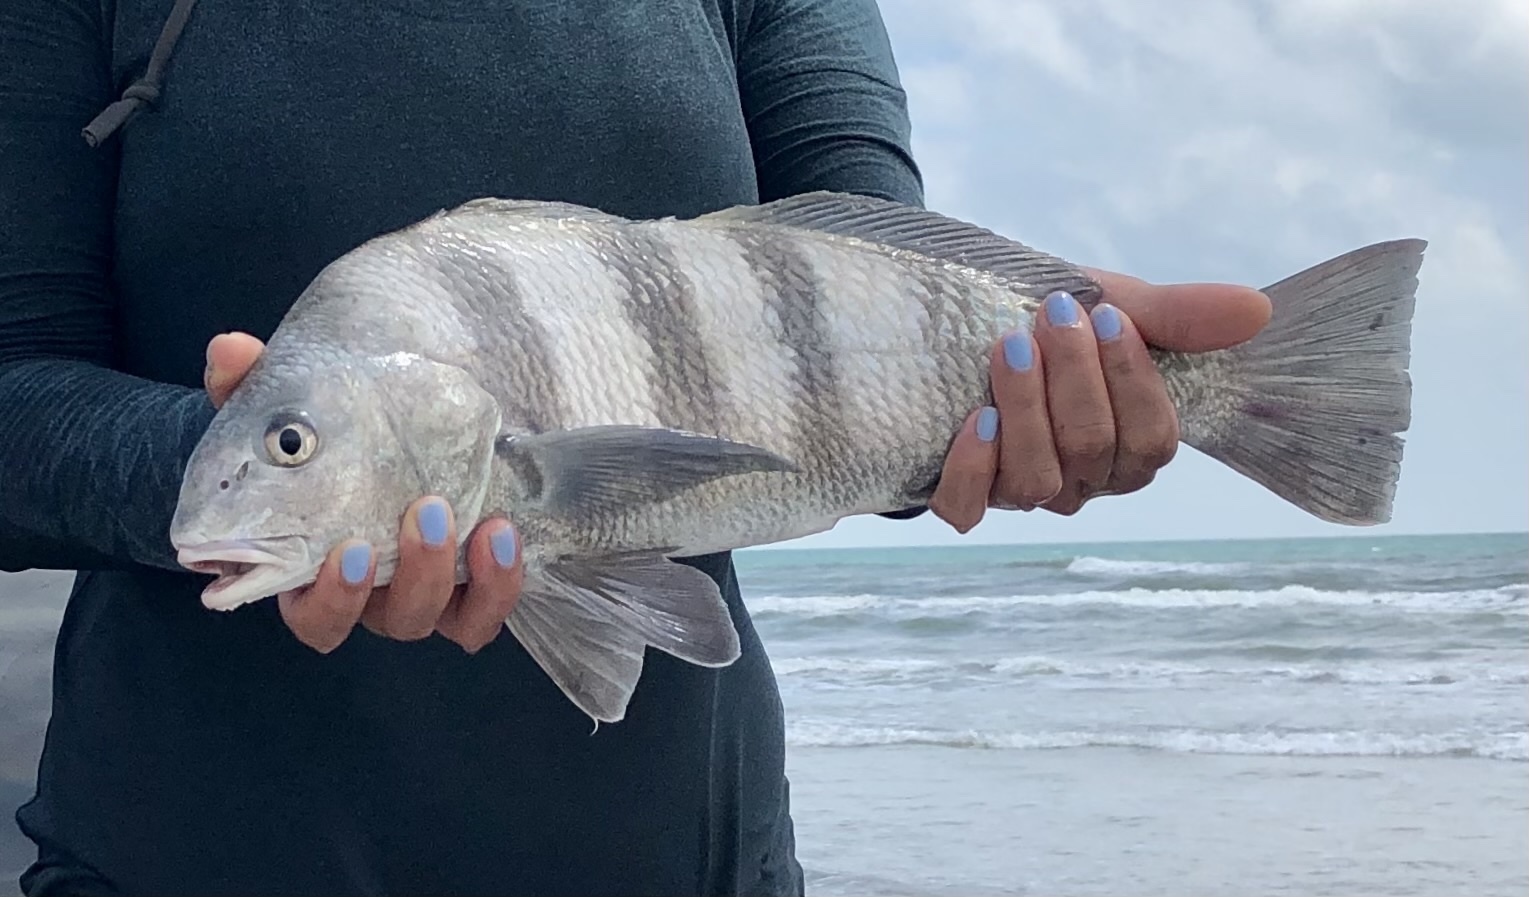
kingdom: Animalia
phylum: Chordata
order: Perciformes
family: Sciaenidae
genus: Pogonias
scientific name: Pogonias cromis
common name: Black drum
